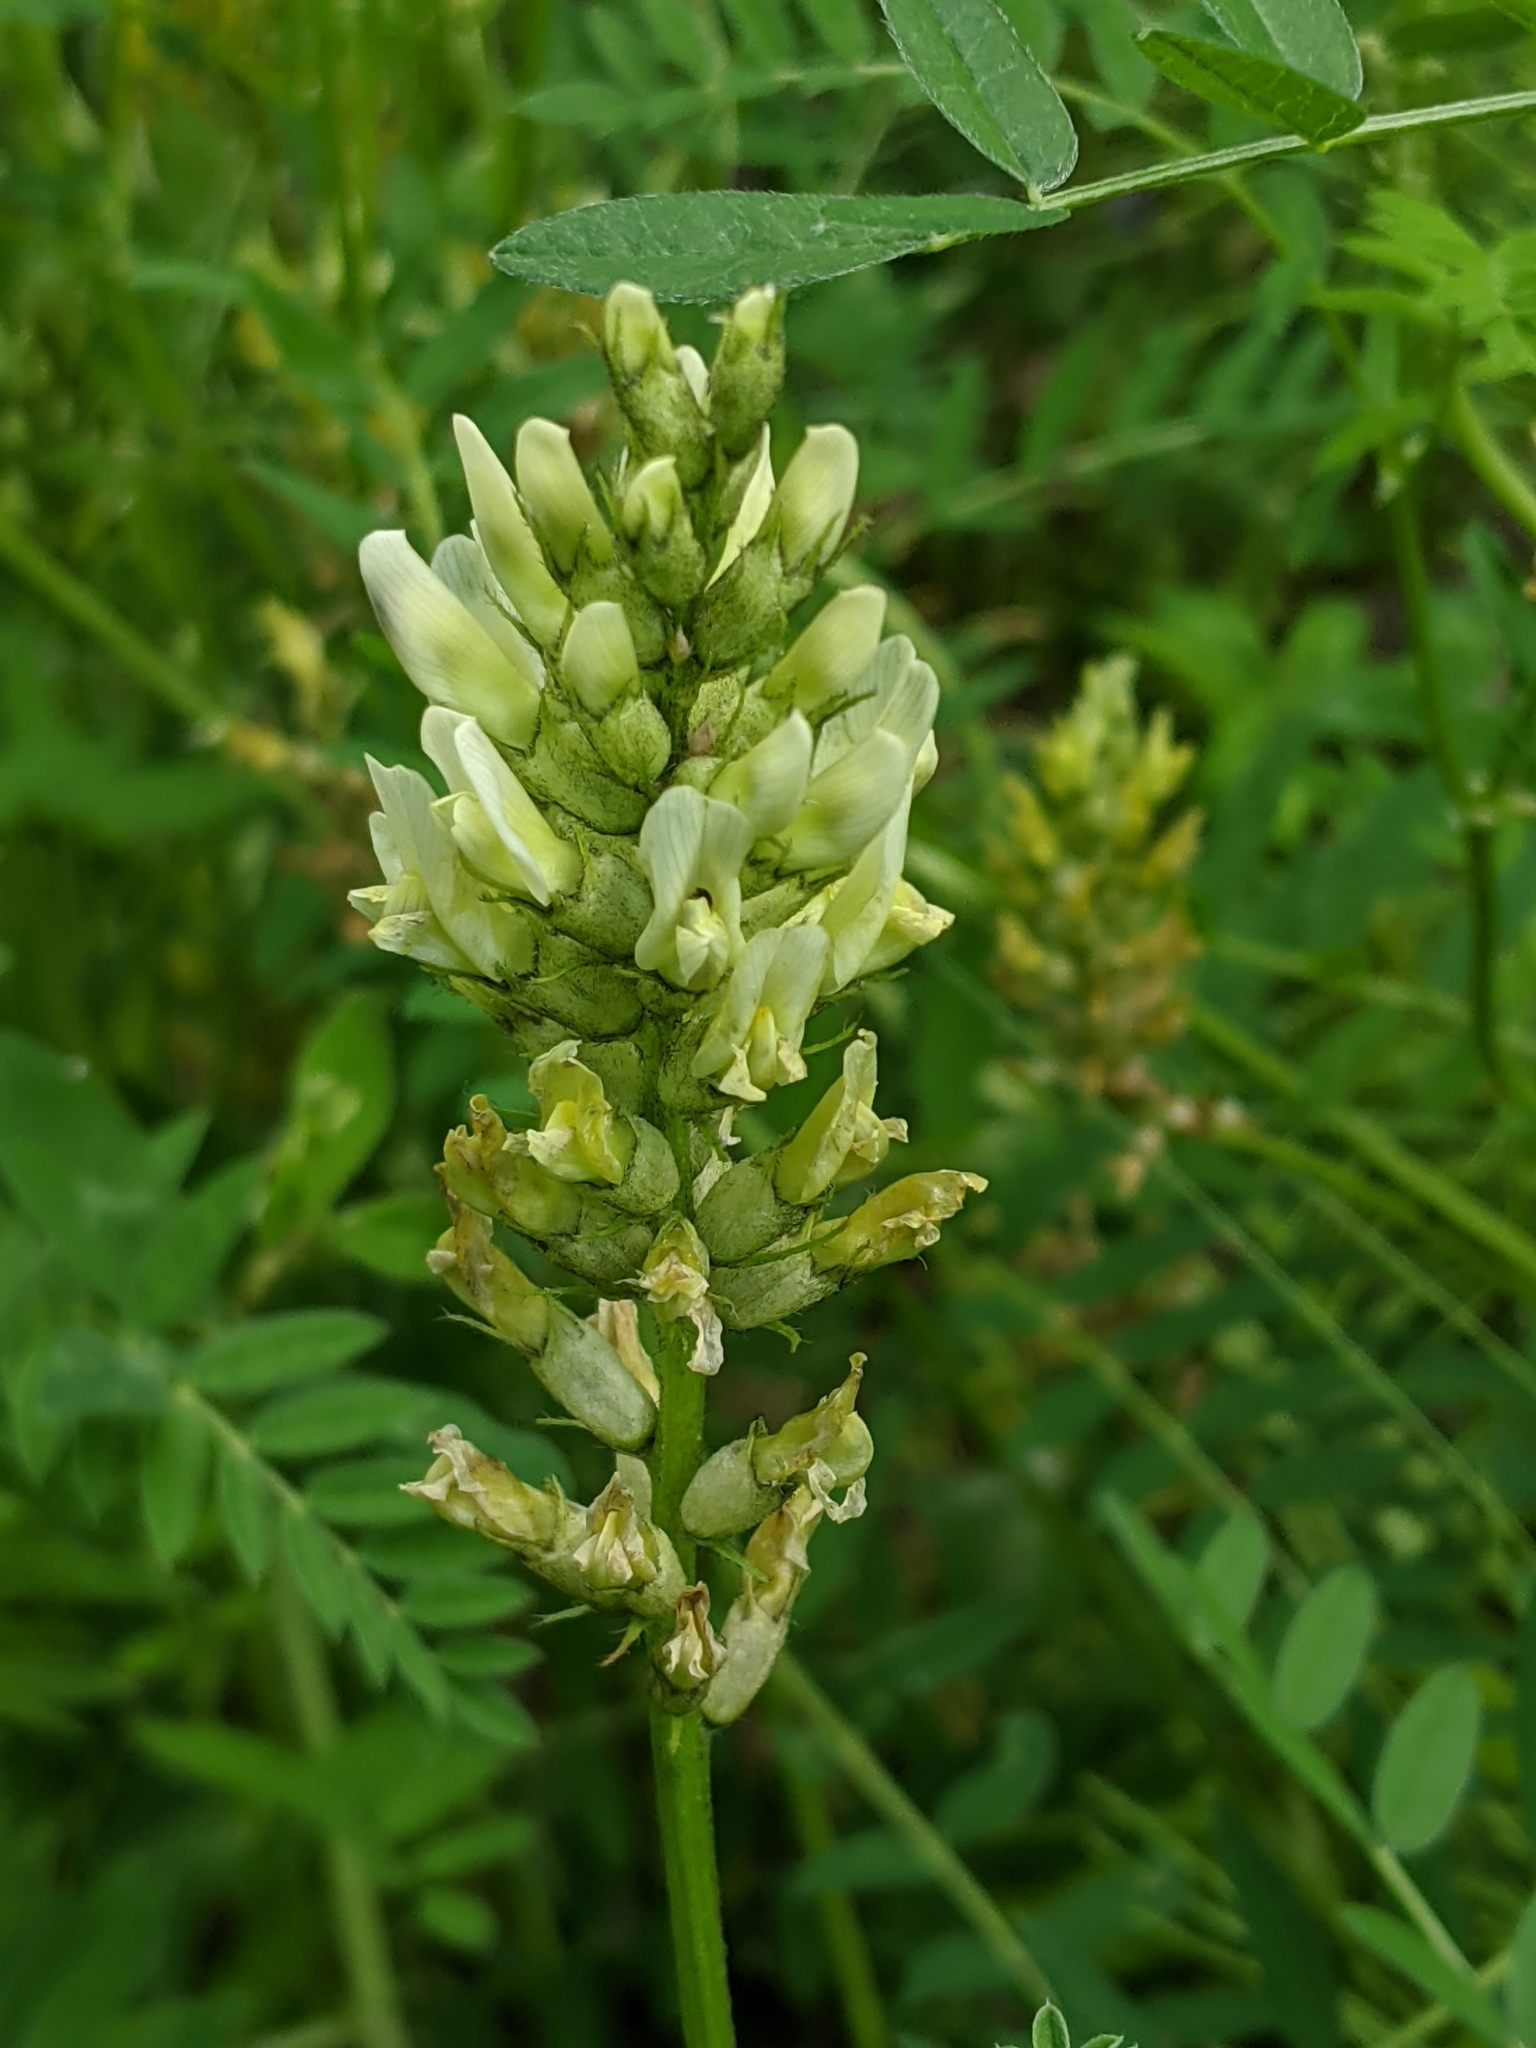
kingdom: Plantae
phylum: Tracheophyta
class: Magnoliopsida
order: Fabales
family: Fabaceae
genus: Astragalus
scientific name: Astragalus cicer
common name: Chick-pea milk-vetch
